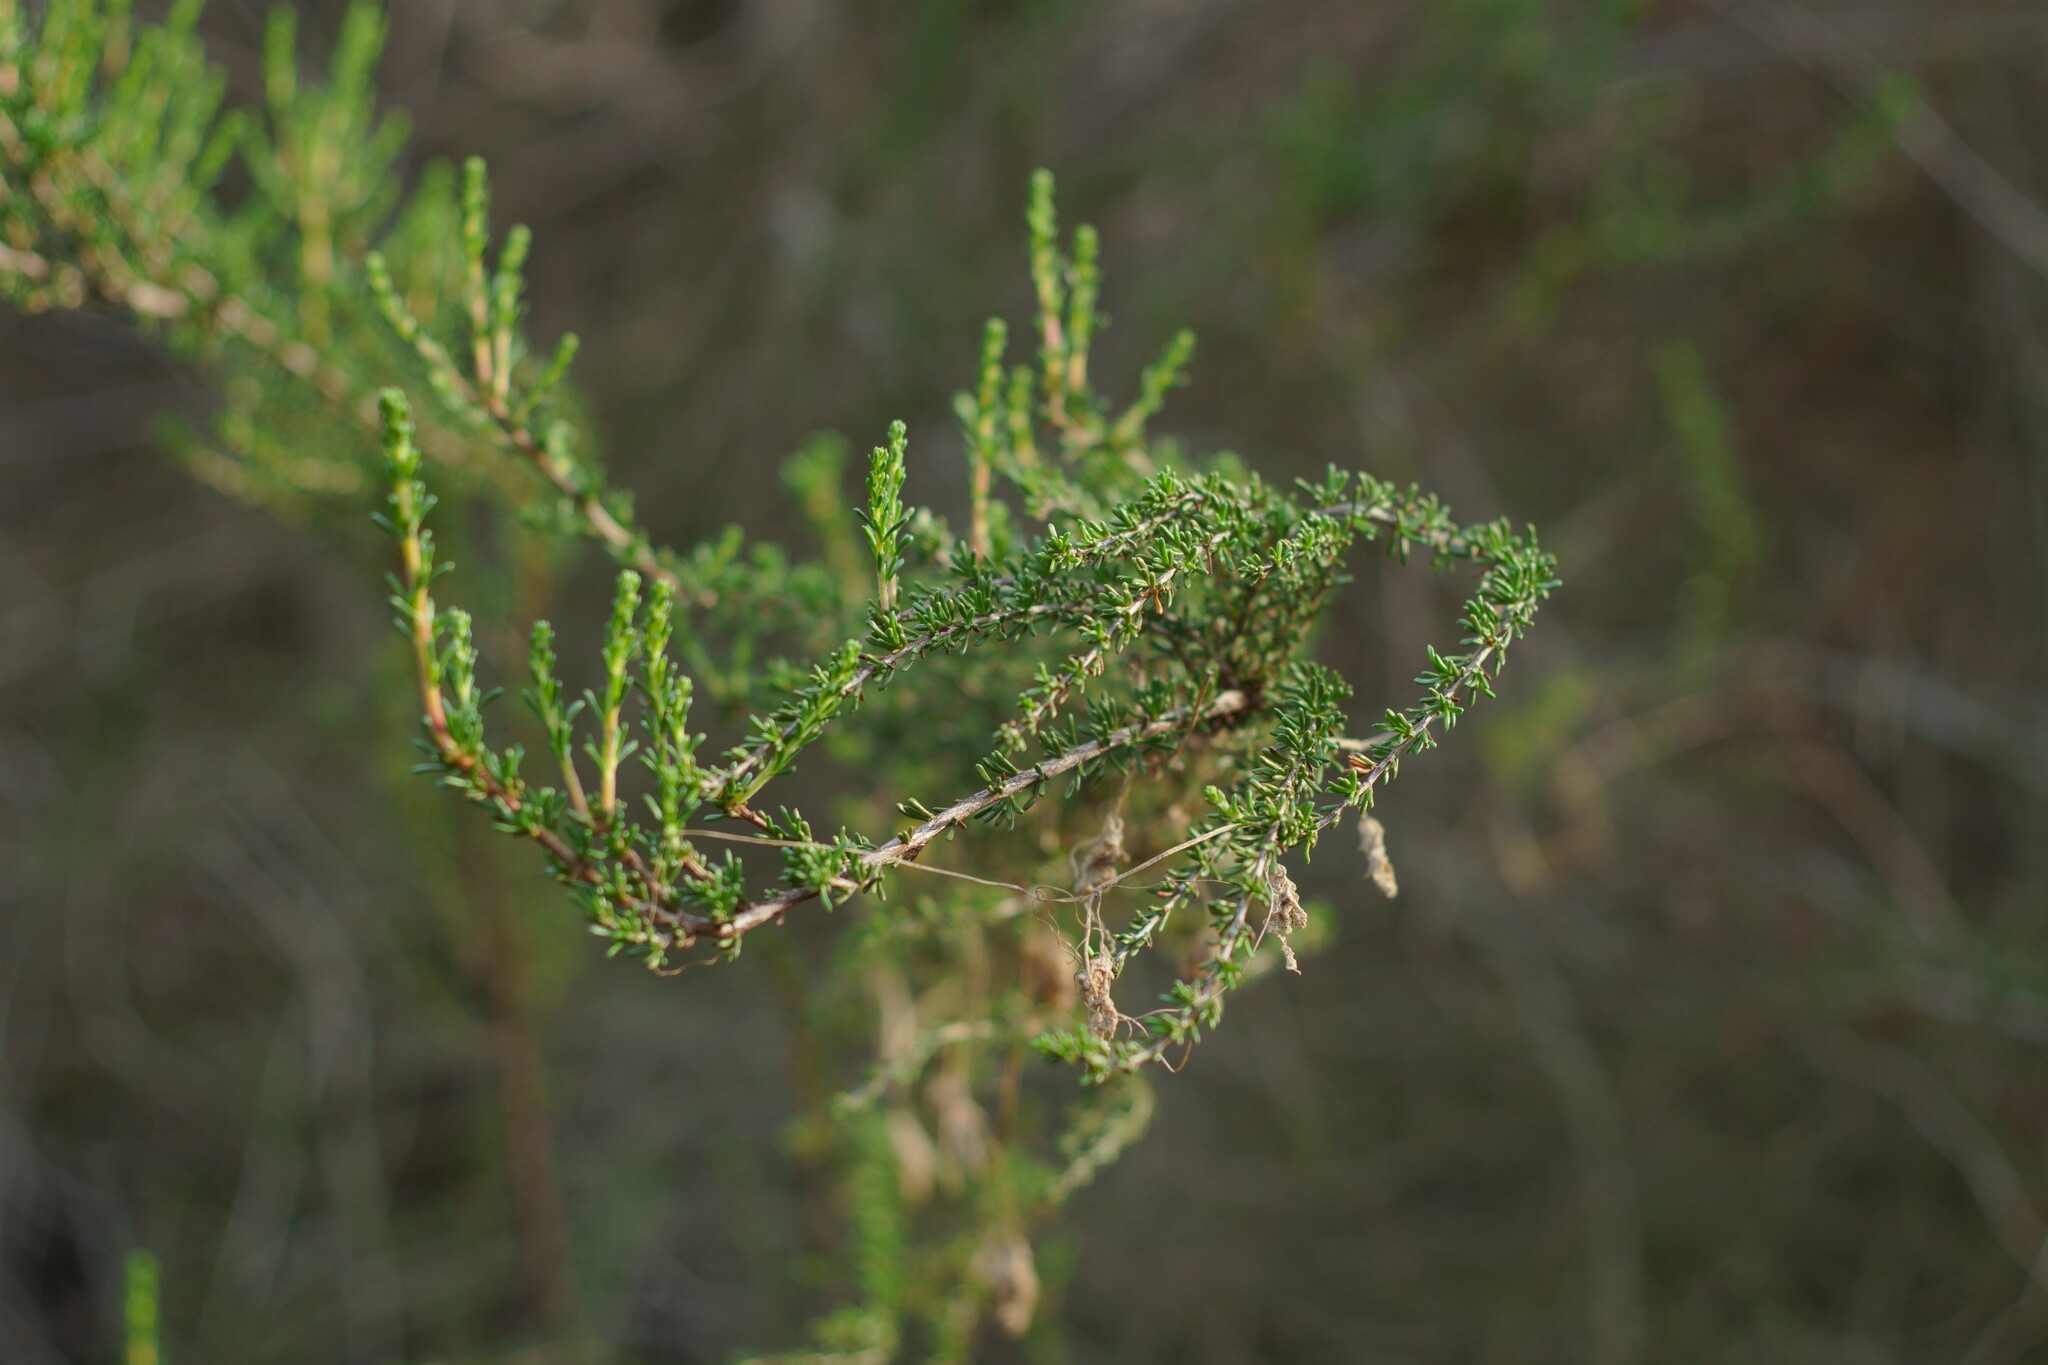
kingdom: Plantae
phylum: Tracheophyta
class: Magnoliopsida
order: Rosales
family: Rosaceae
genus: Adenostoma
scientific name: Adenostoma fasciculatum
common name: Chamise
